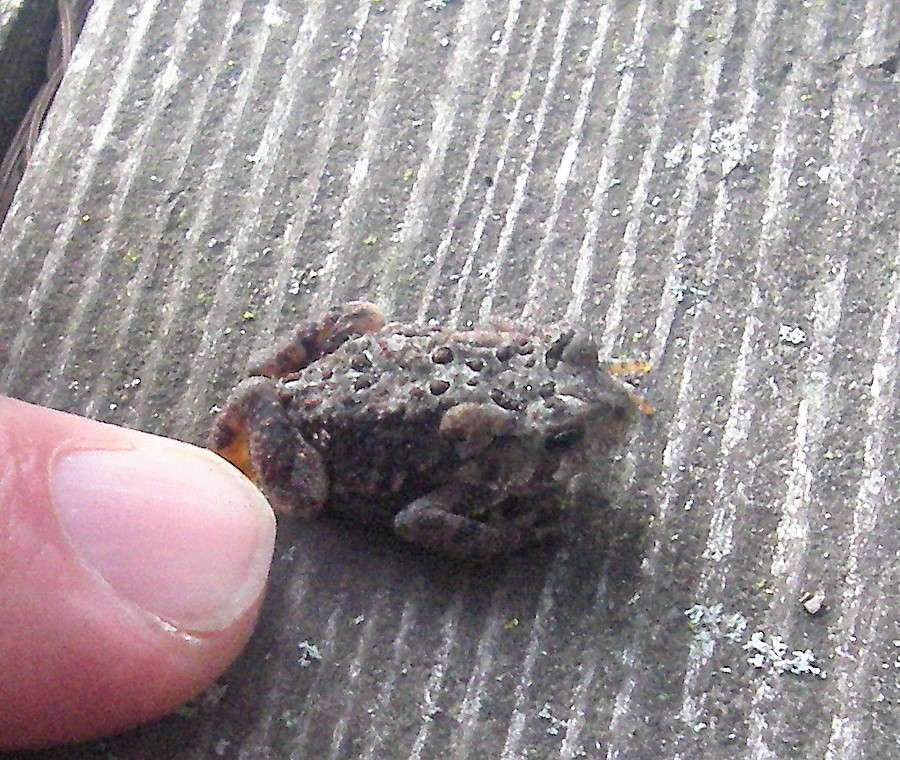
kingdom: Animalia
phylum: Chordata
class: Amphibia
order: Anura
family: Bufonidae
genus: Anaxyrus
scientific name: Anaxyrus americanus
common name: American toad
